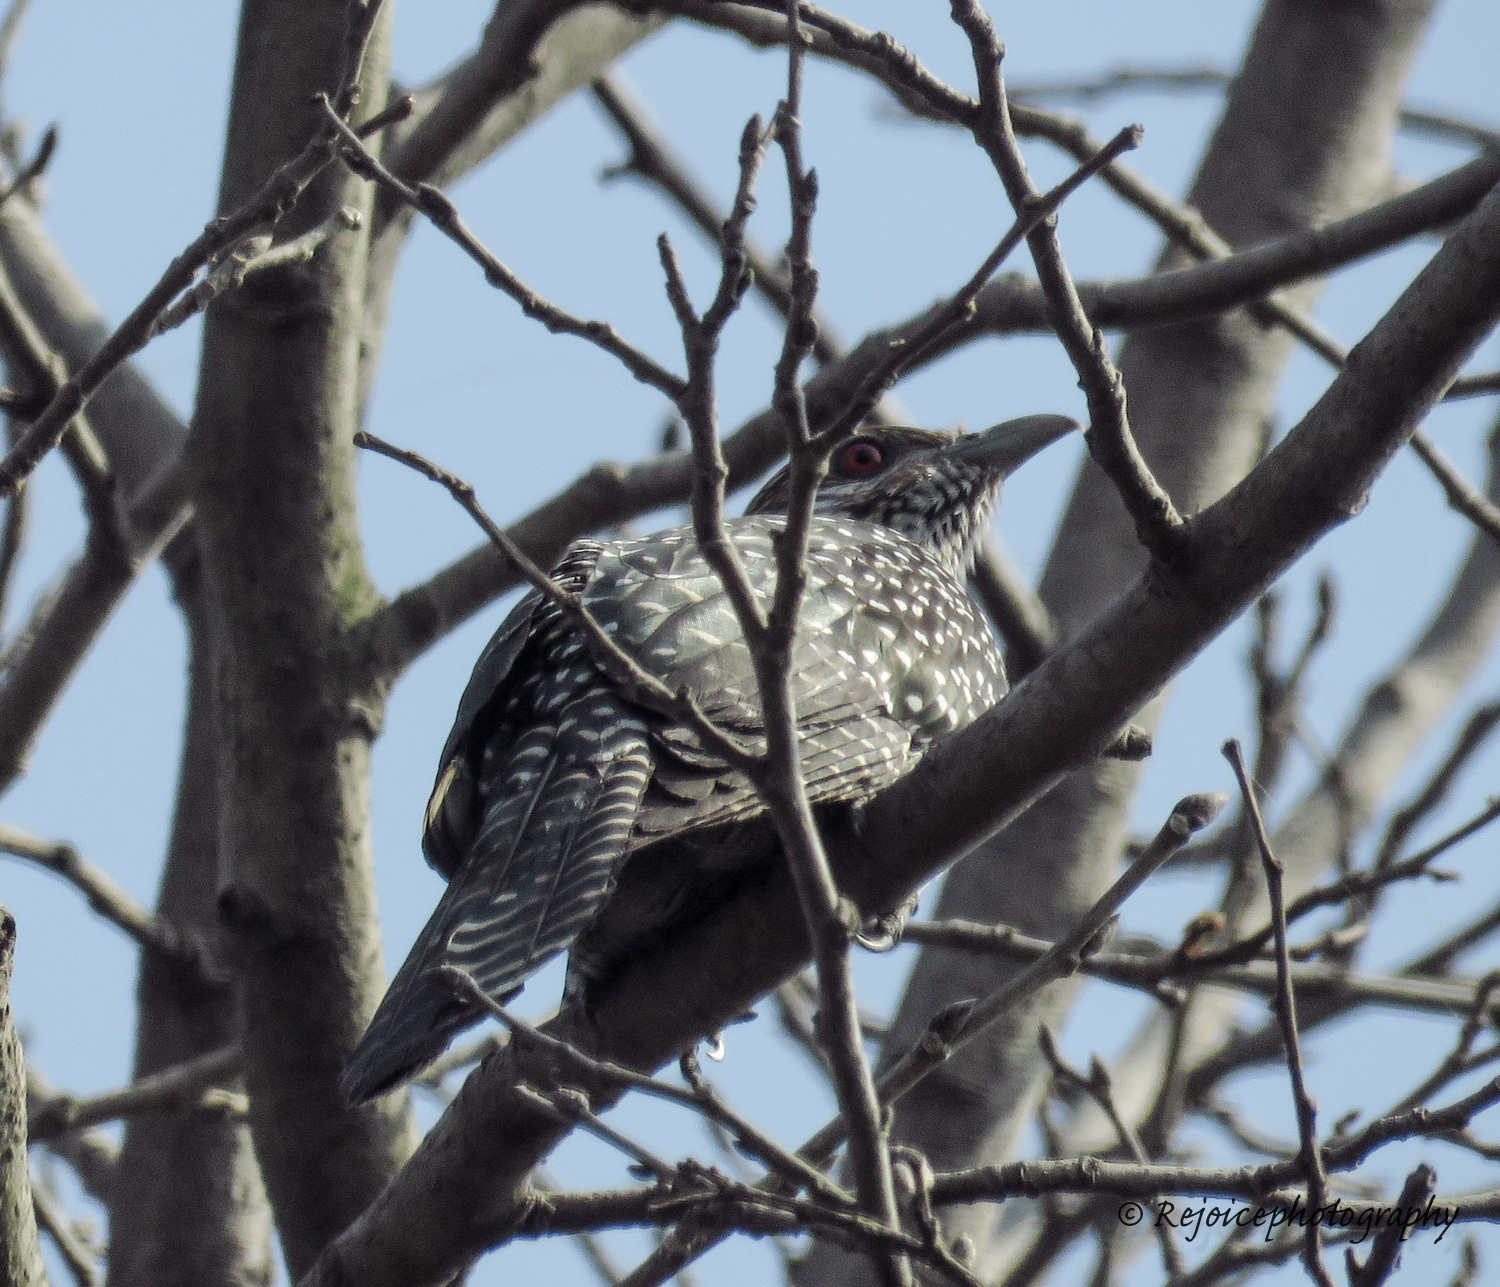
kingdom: Animalia
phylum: Chordata
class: Aves
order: Cuculiformes
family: Cuculidae
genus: Eudynamys
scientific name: Eudynamys scolopaceus
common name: Asian koel
